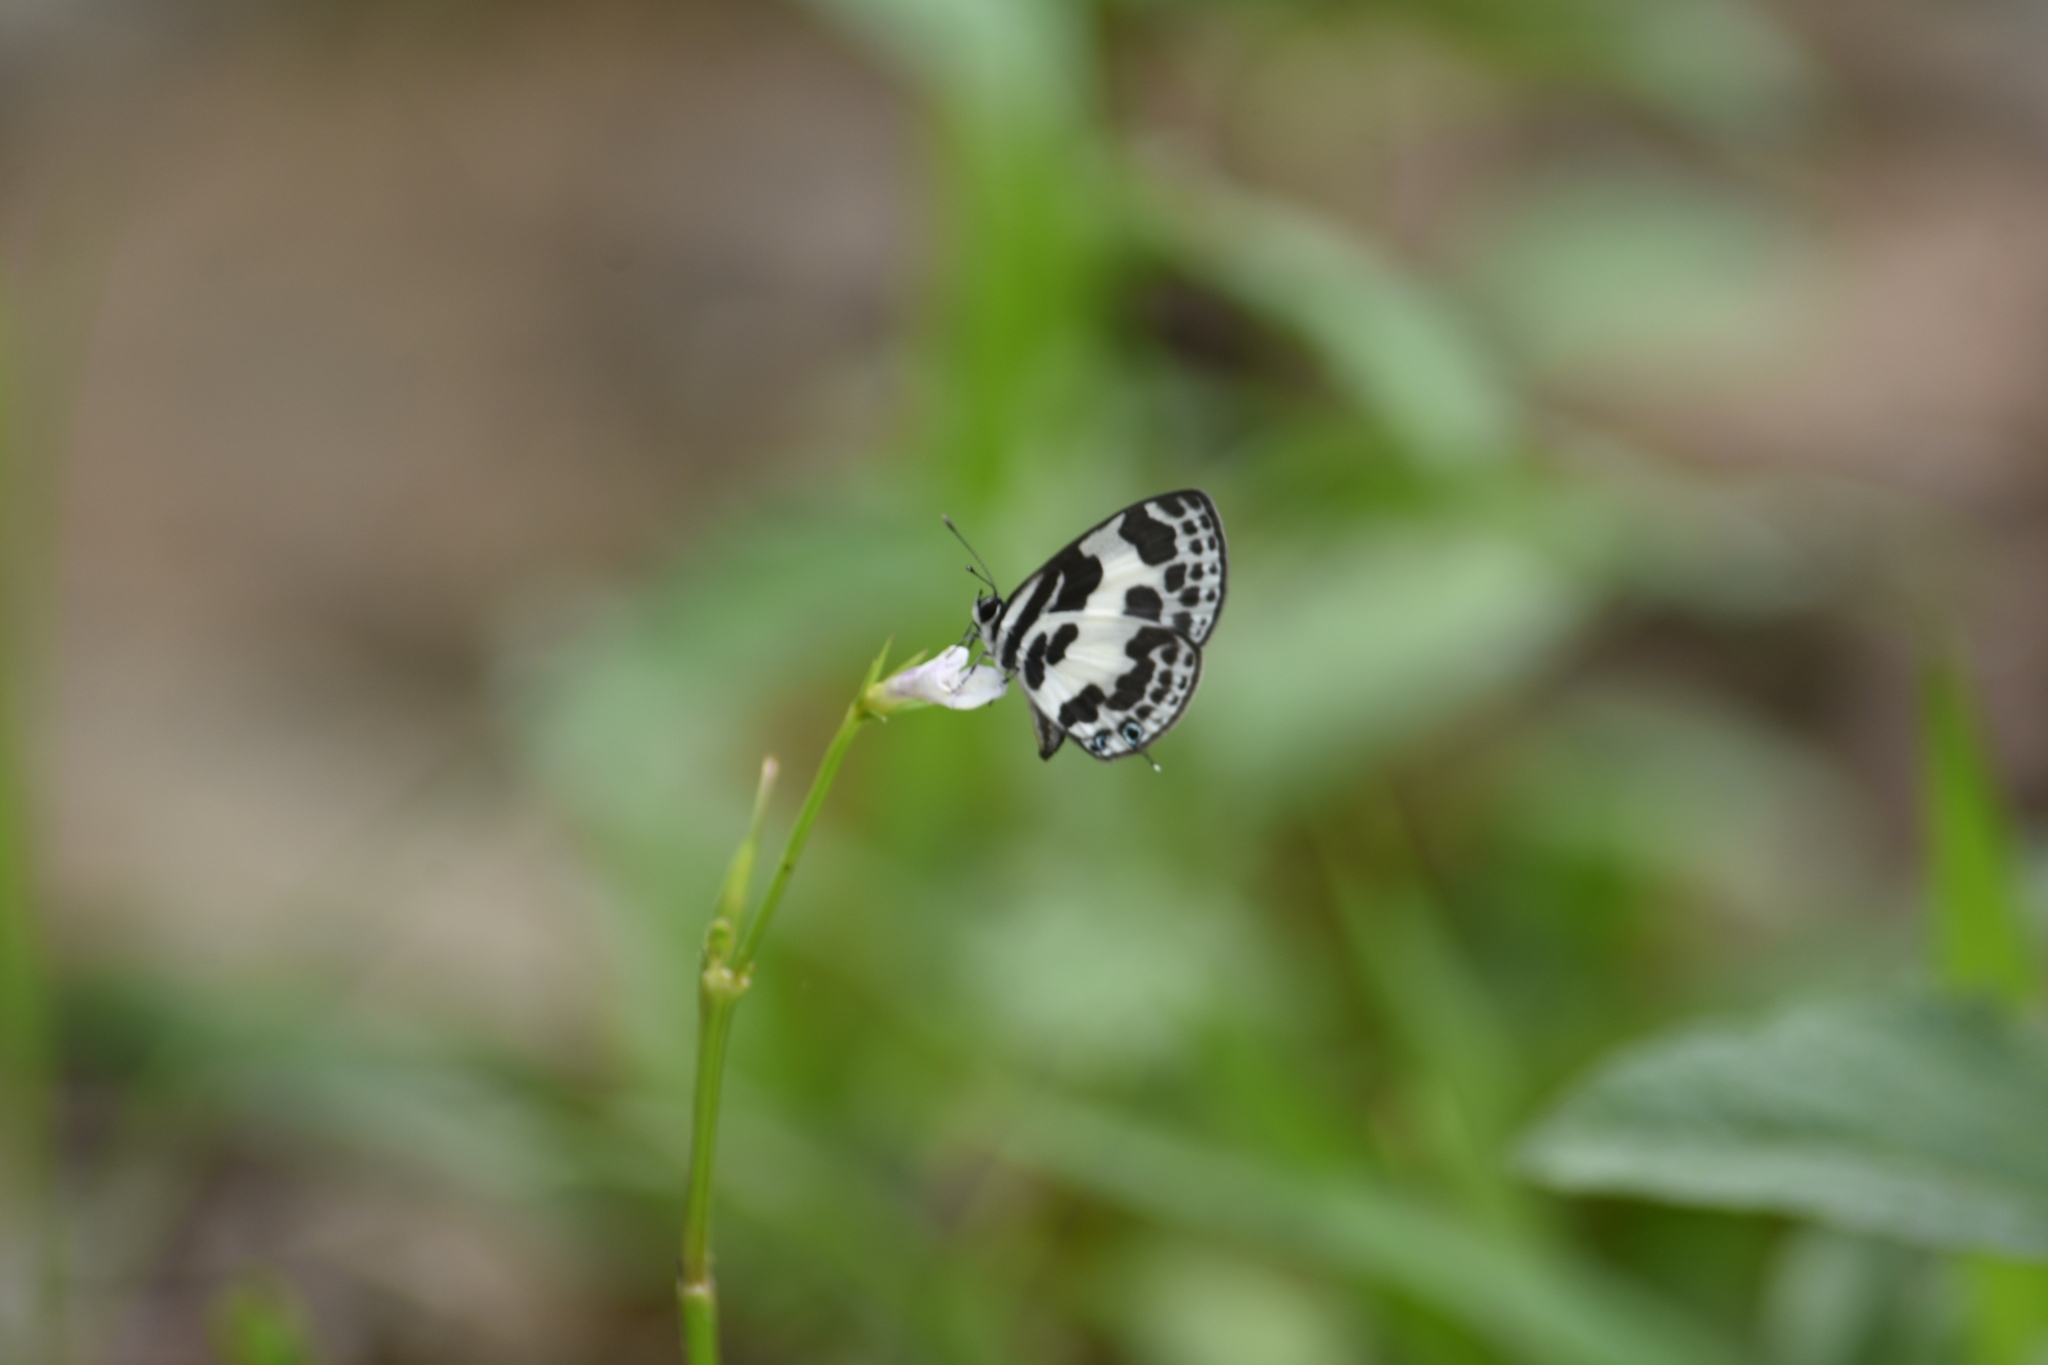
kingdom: Animalia
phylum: Arthropoda
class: Insecta
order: Lepidoptera
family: Lycaenidae
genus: Discolampa
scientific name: Discolampa ethion
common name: Banded blue pierrot
